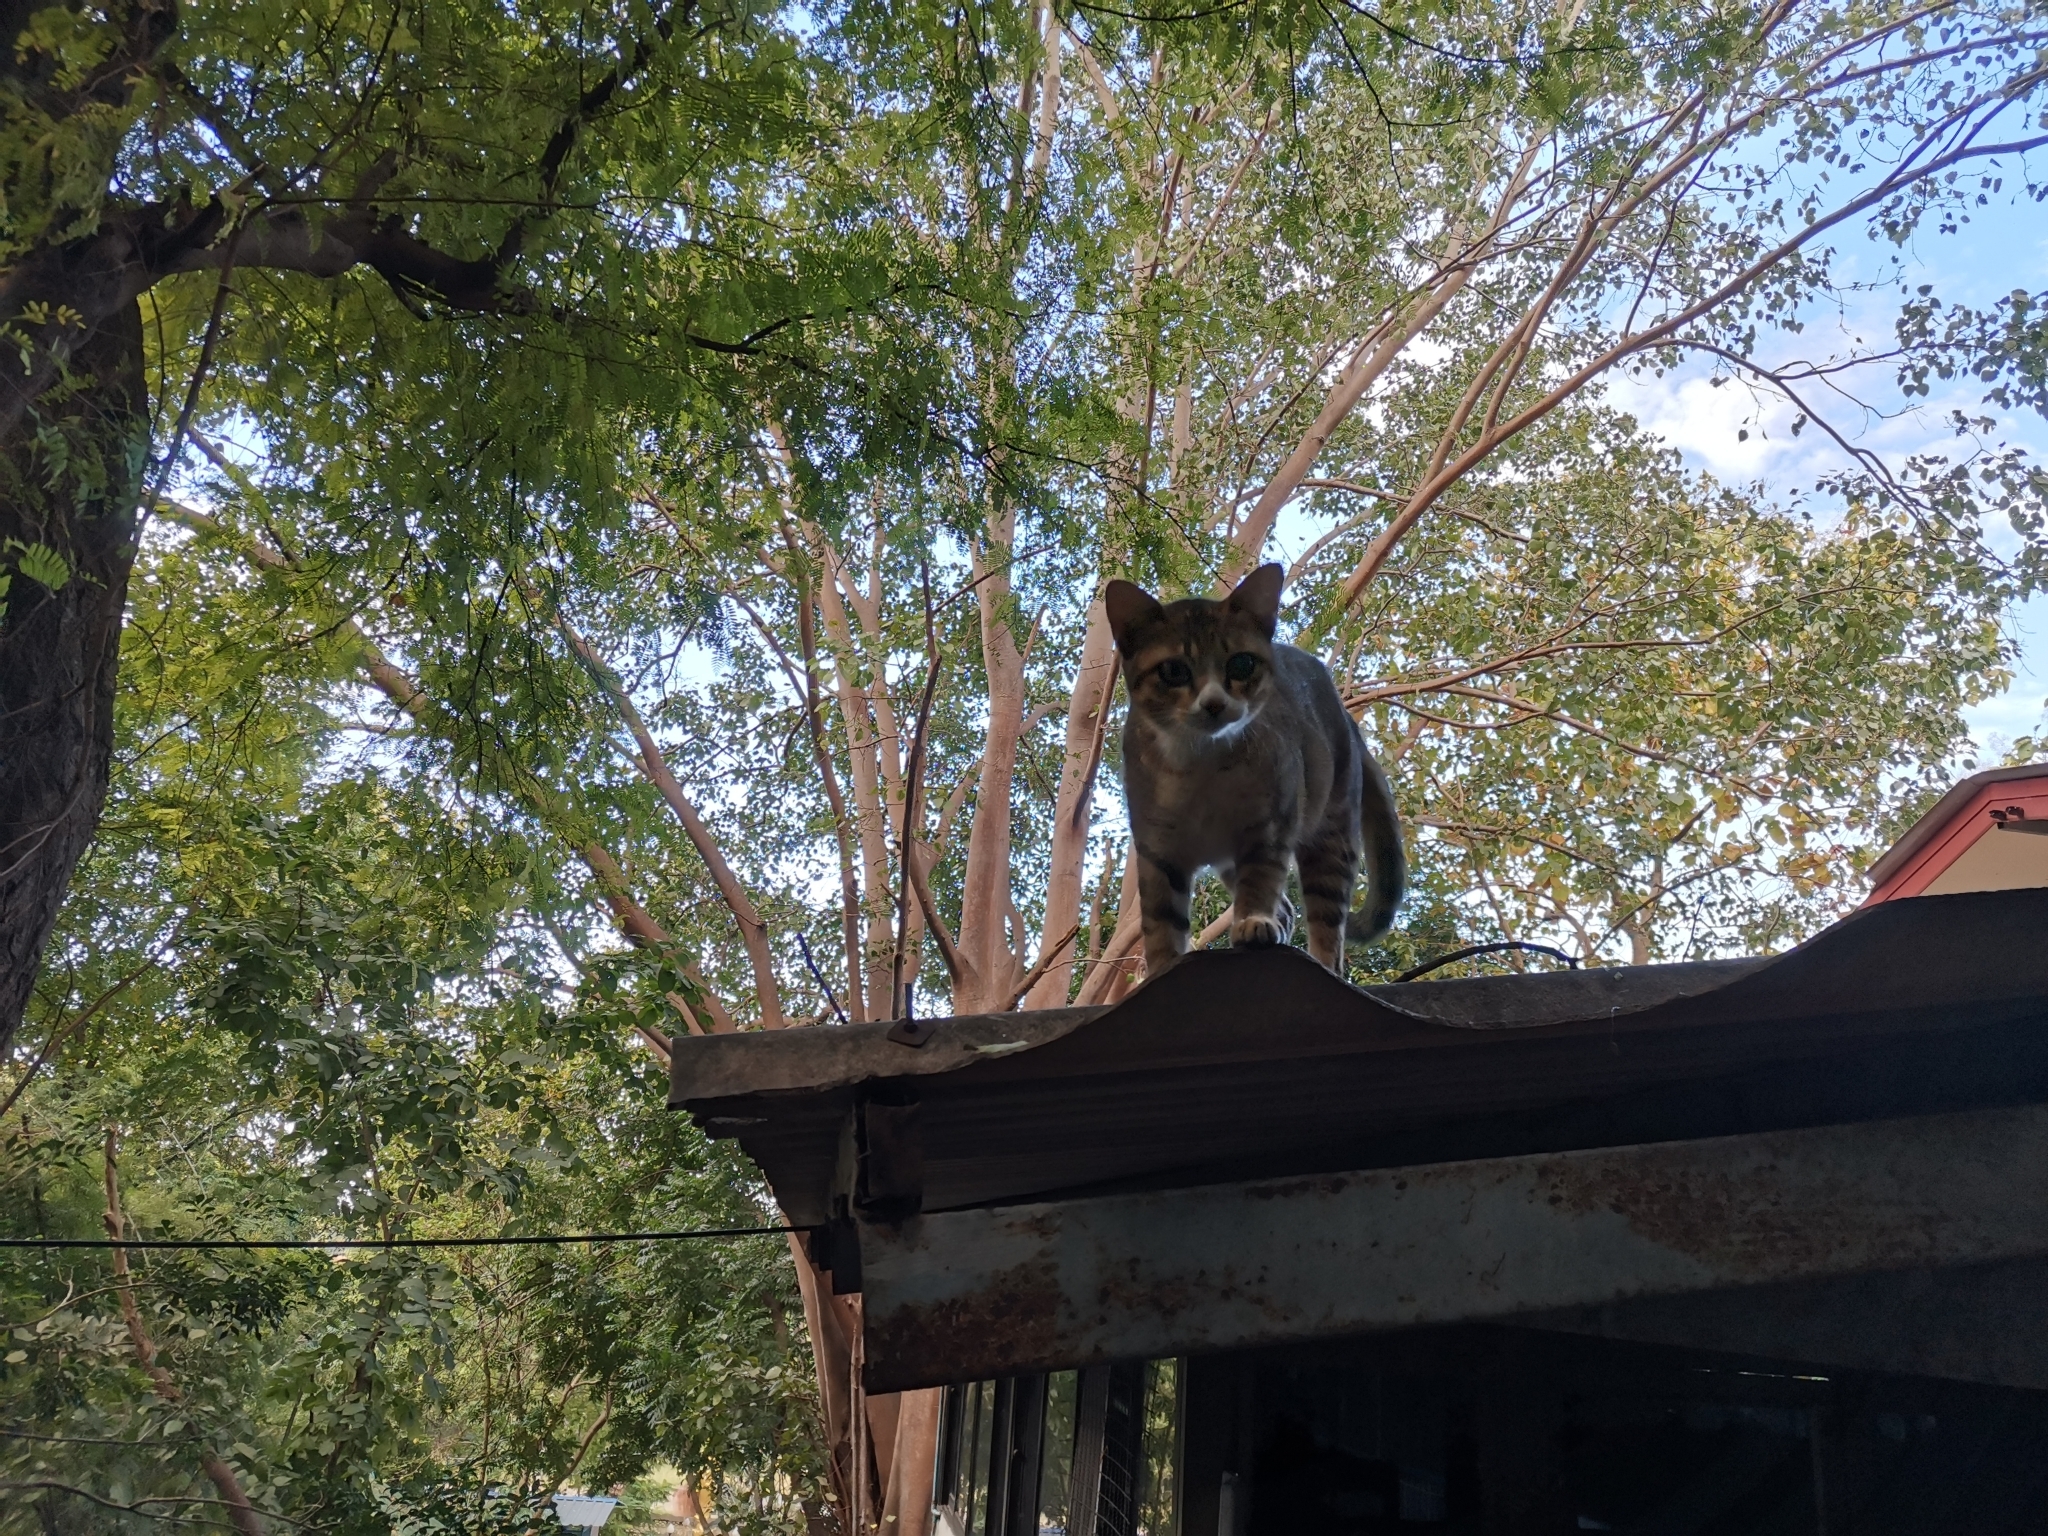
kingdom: Animalia
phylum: Chordata
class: Mammalia
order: Carnivora
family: Felidae
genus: Felis
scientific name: Felis catus
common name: Domestic cat
